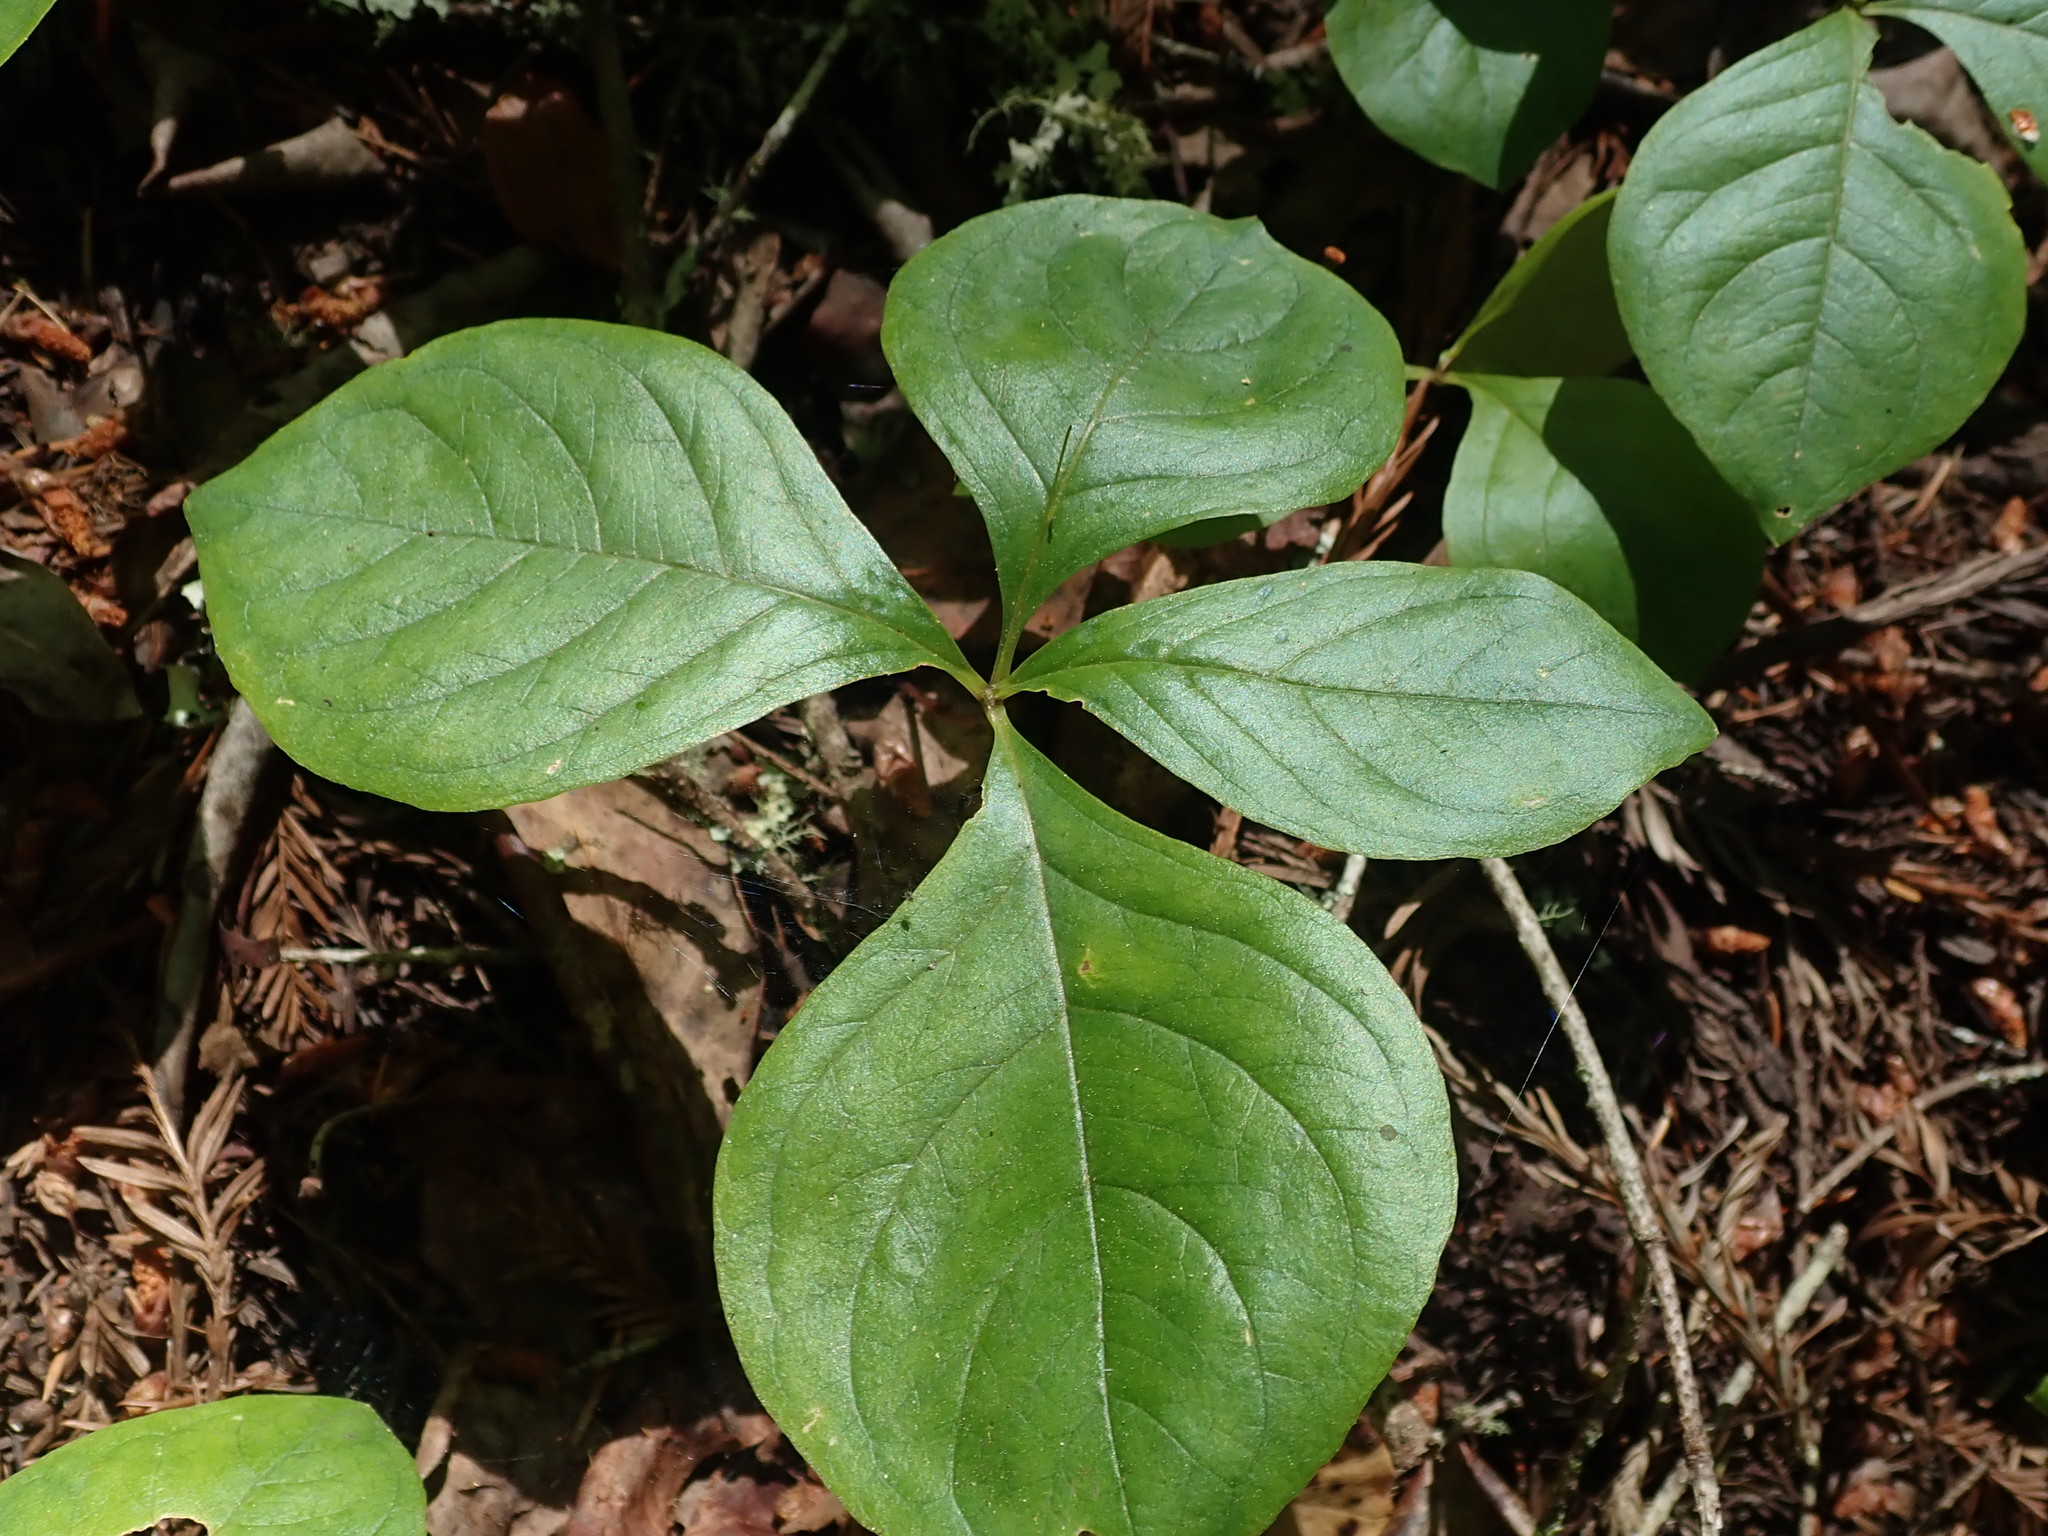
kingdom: Plantae
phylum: Tracheophyta
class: Magnoliopsida
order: Ericales
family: Primulaceae
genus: Lysimachia
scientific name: Lysimachia latifolia
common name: Pacific starflower
